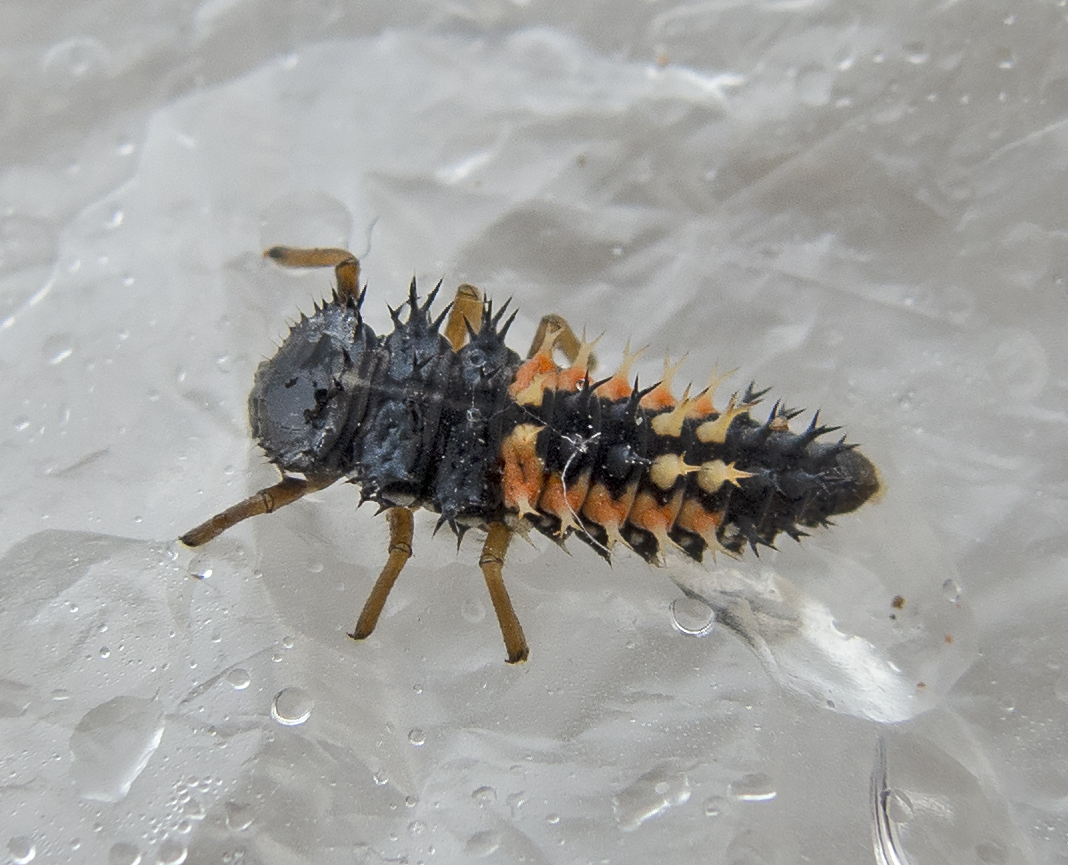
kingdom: Animalia
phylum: Arthropoda
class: Insecta
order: Coleoptera
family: Coccinellidae
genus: Harmonia
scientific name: Harmonia axyridis
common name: Harlequin ladybird
